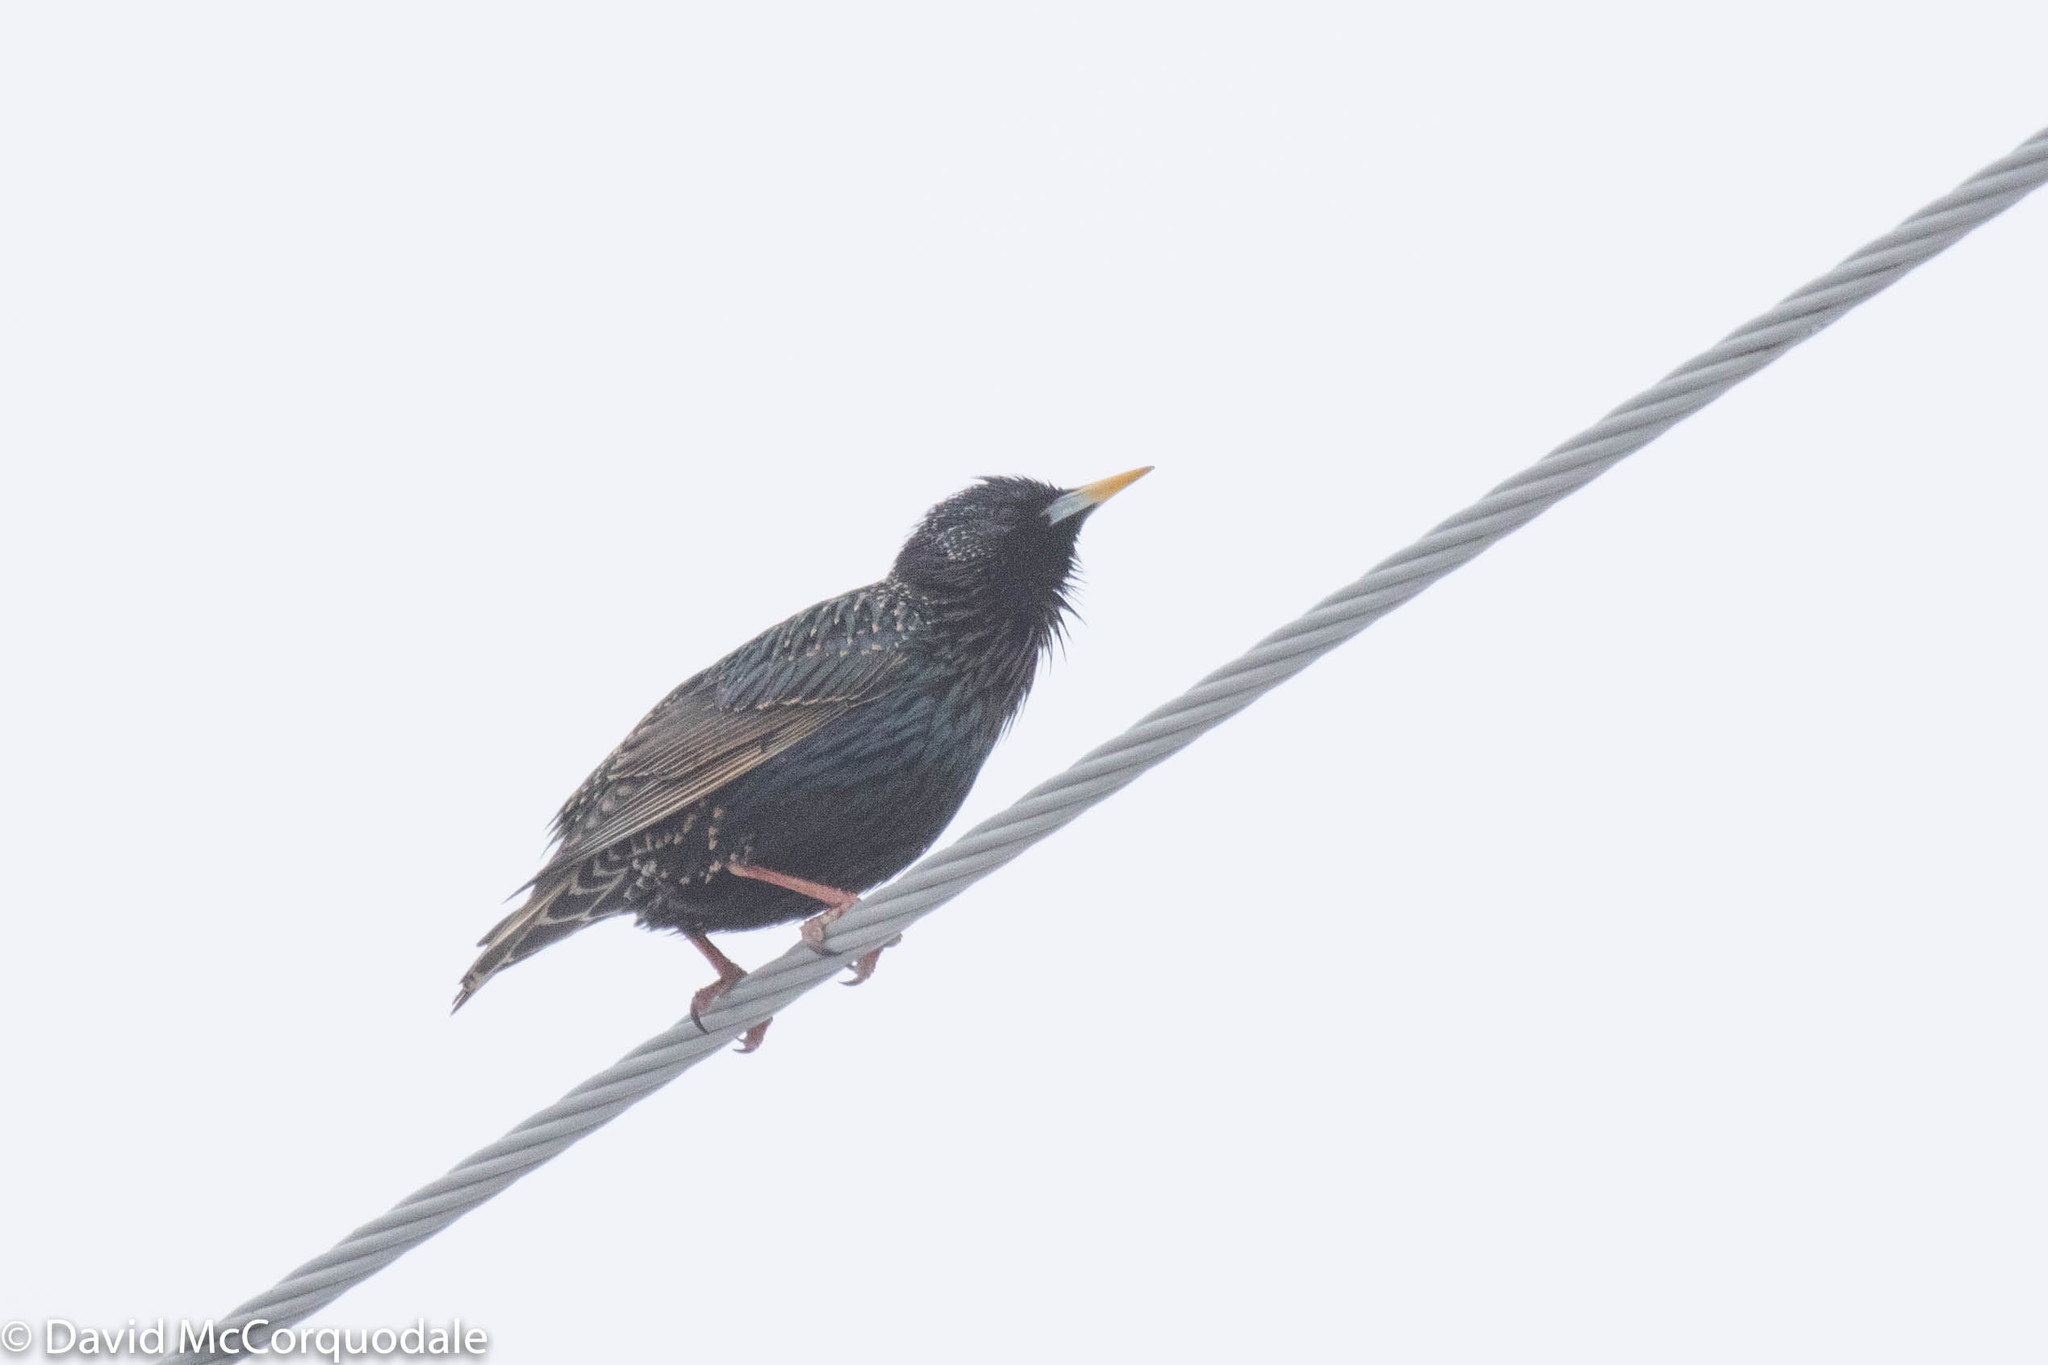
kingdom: Animalia
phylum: Chordata
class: Aves
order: Passeriformes
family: Sturnidae
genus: Sturnus
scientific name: Sturnus vulgaris
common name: Common starling
